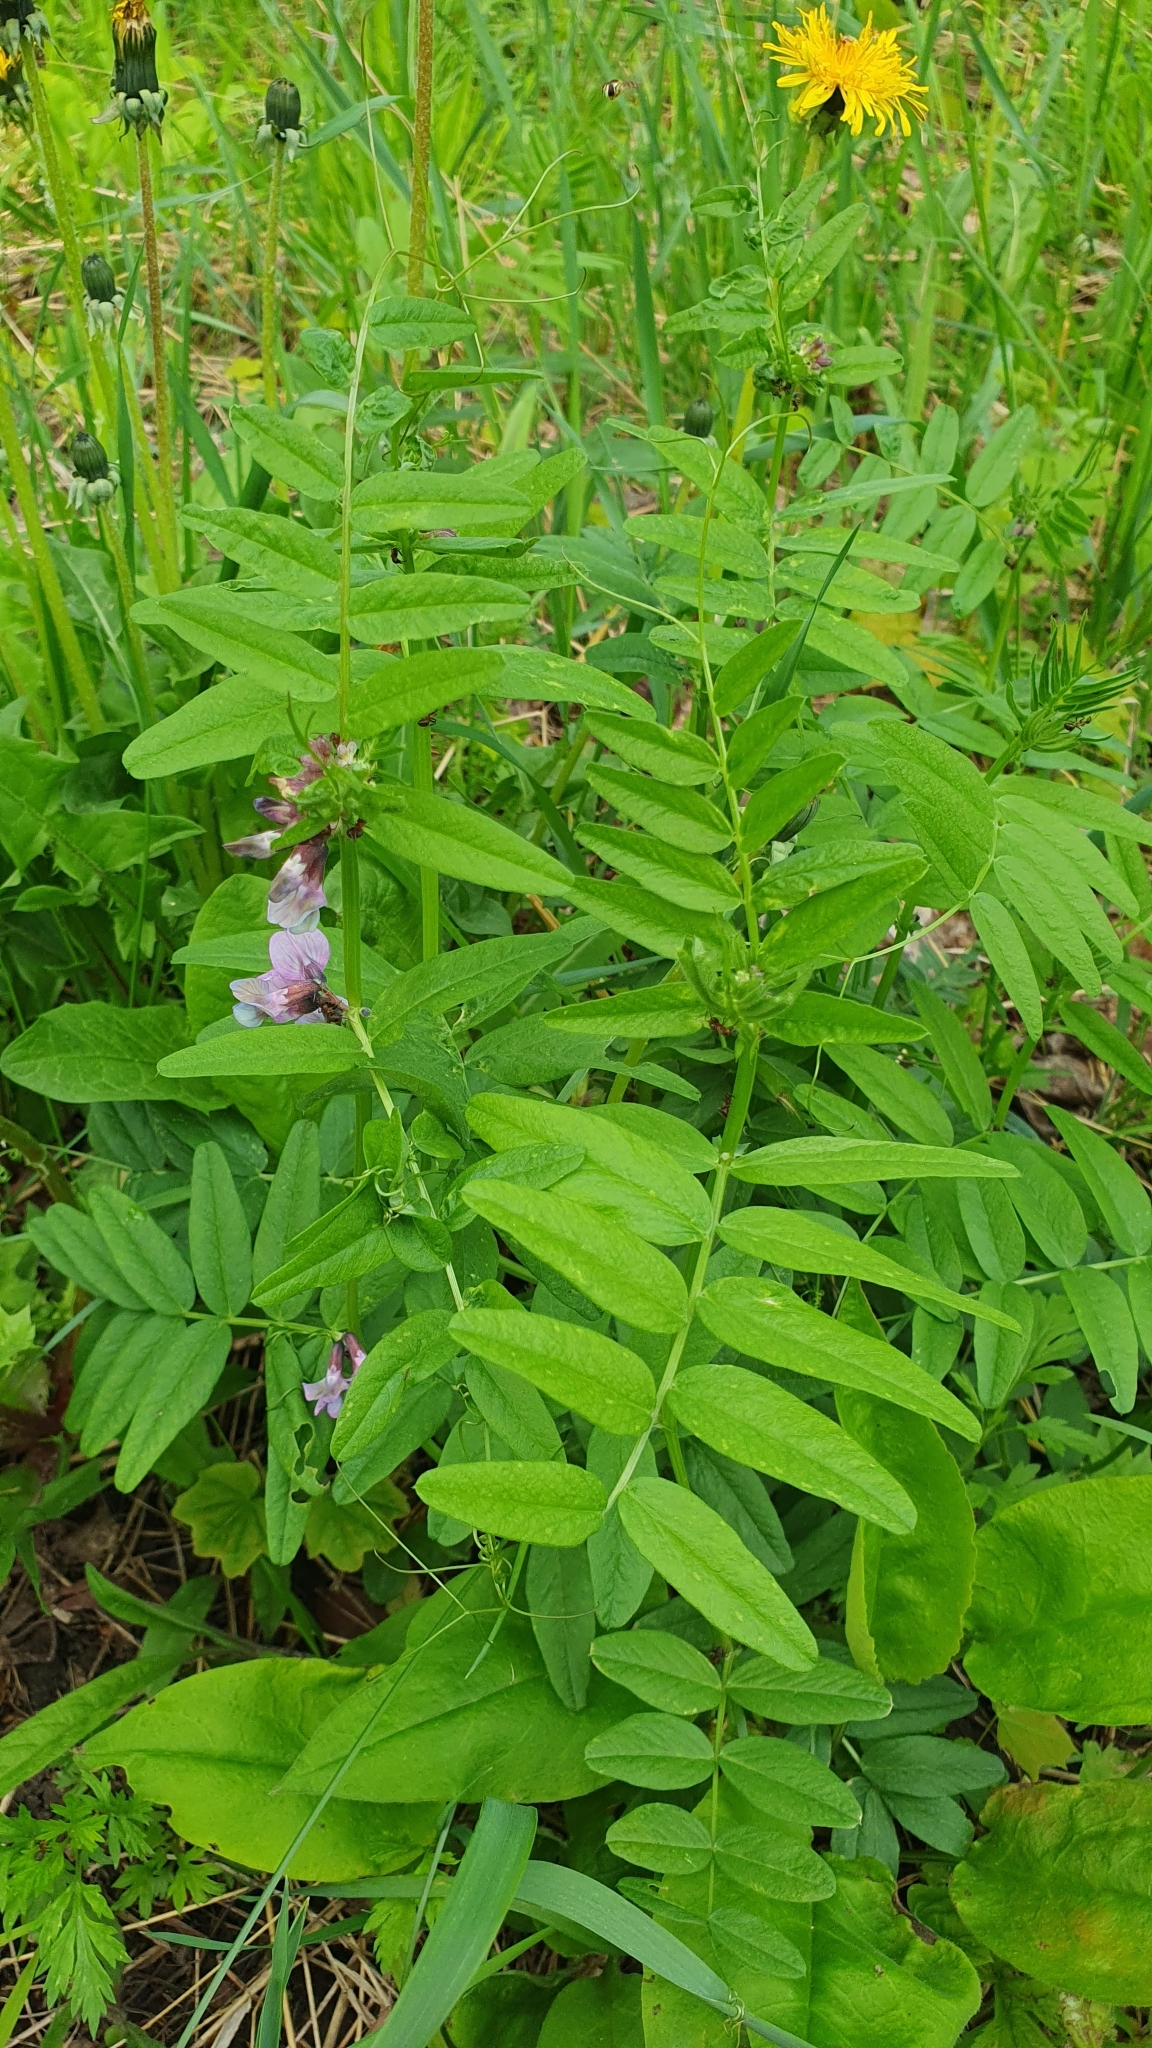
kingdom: Plantae
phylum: Tracheophyta
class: Magnoliopsida
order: Fabales
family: Fabaceae
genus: Vicia
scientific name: Vicia sepium
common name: Bush vetch
